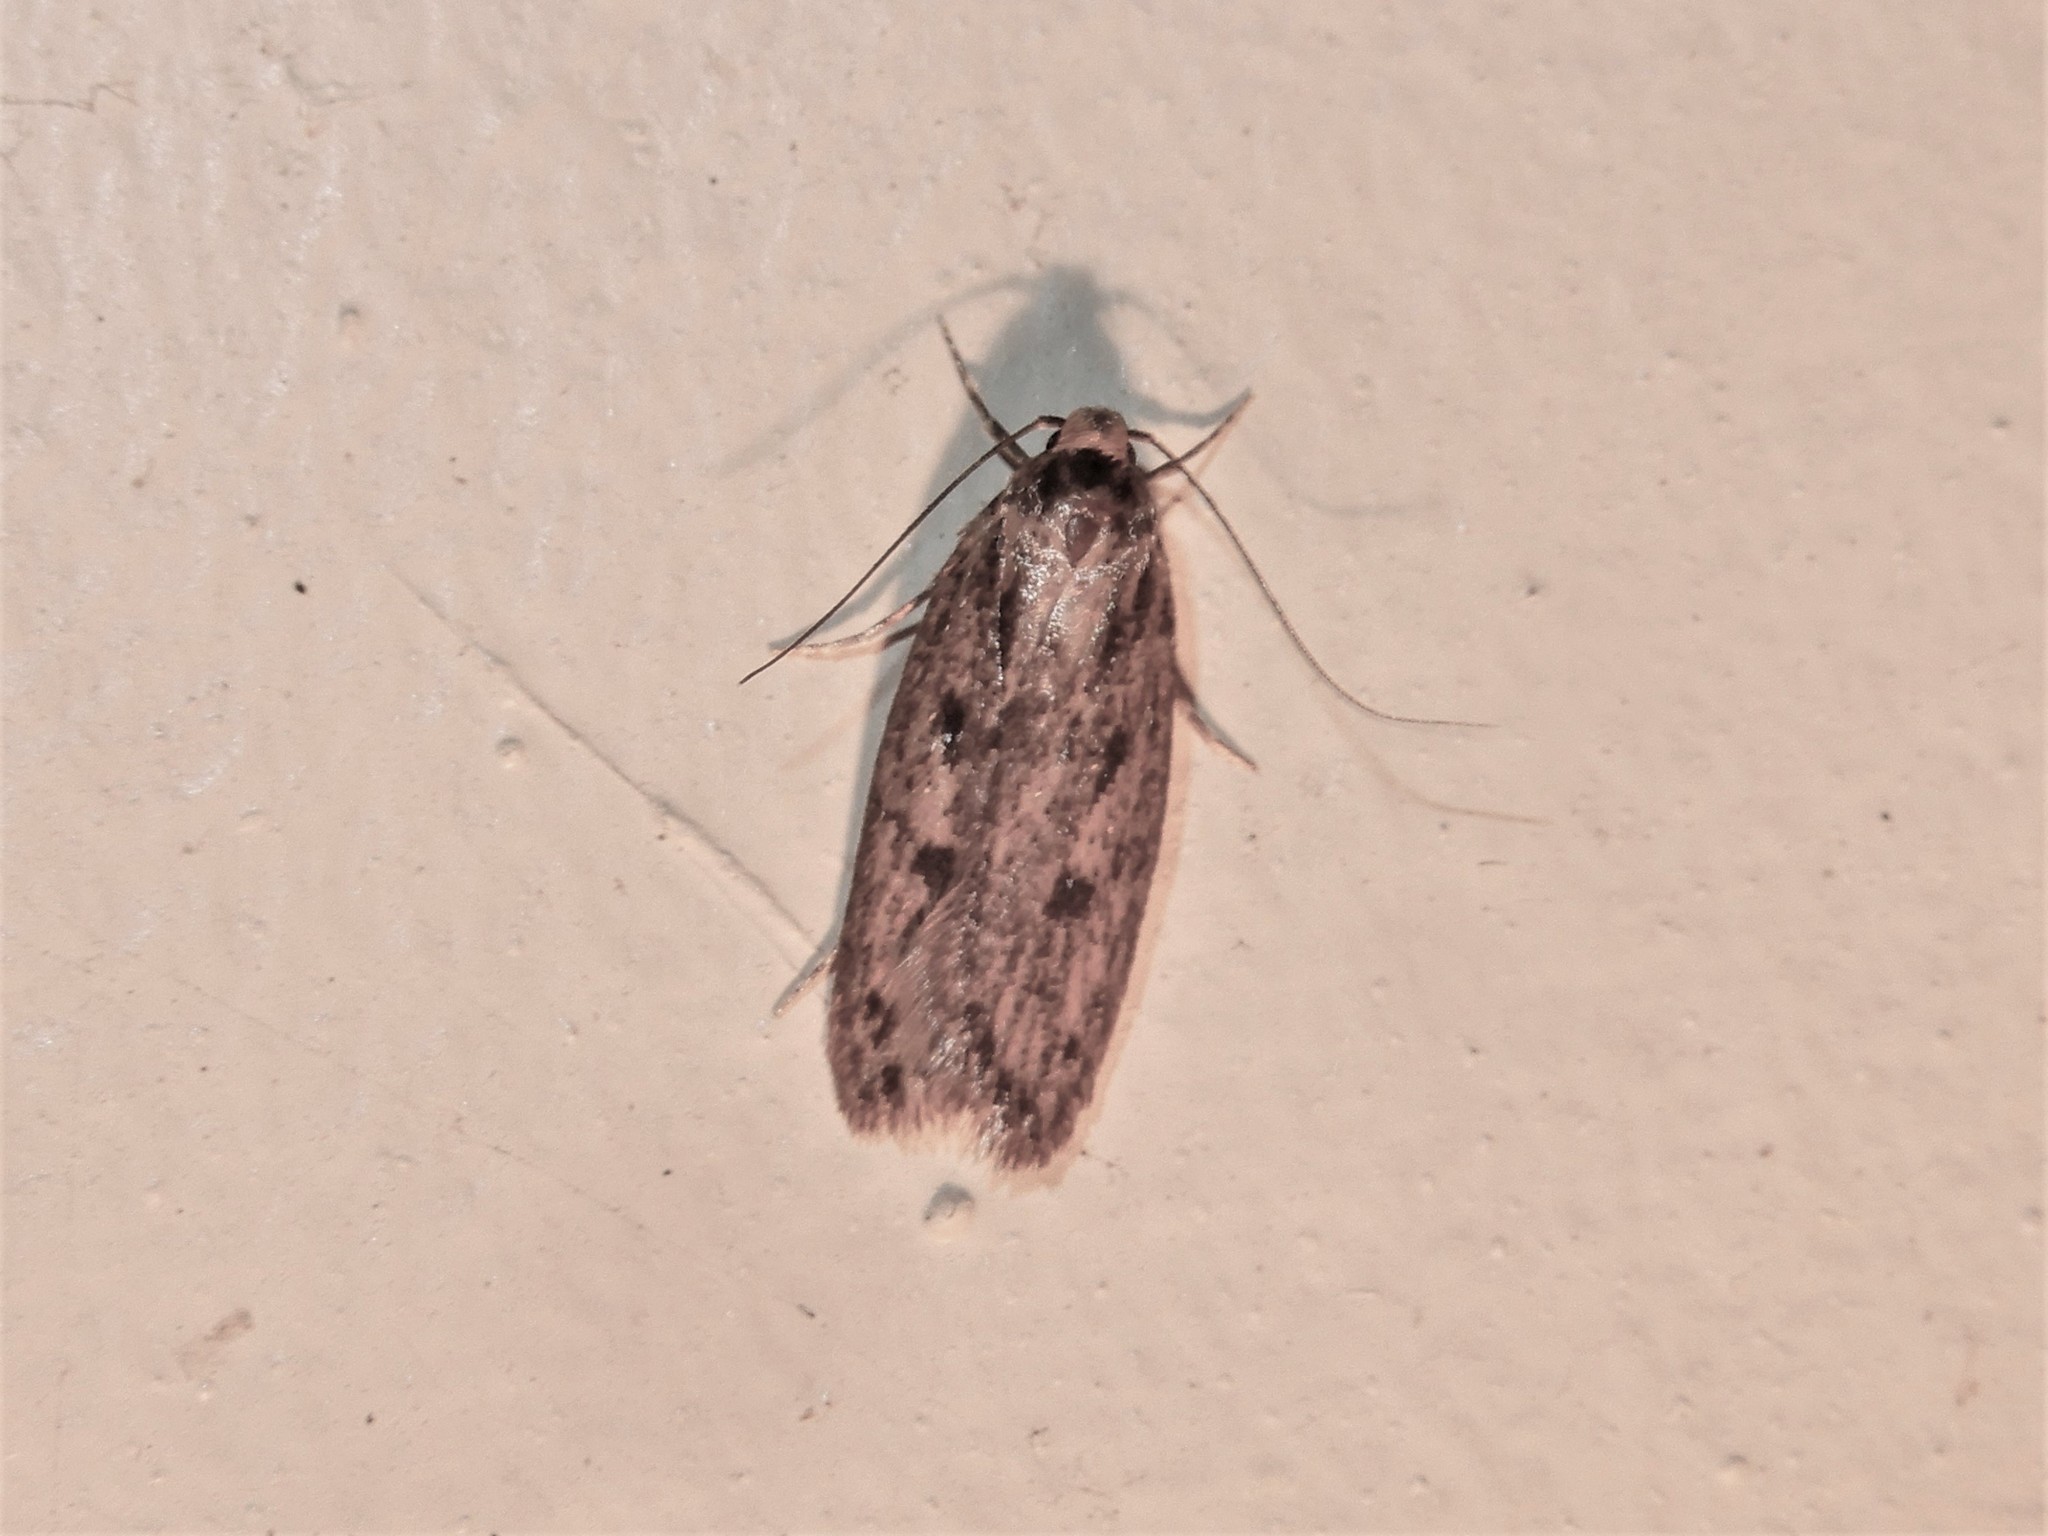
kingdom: Animalia
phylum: Arthropoda
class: Insecta
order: Lepidoptera
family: Oecophoridae
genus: Hofmannophila
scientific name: Hofmannophila pseudospretella
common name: Brown house moth
